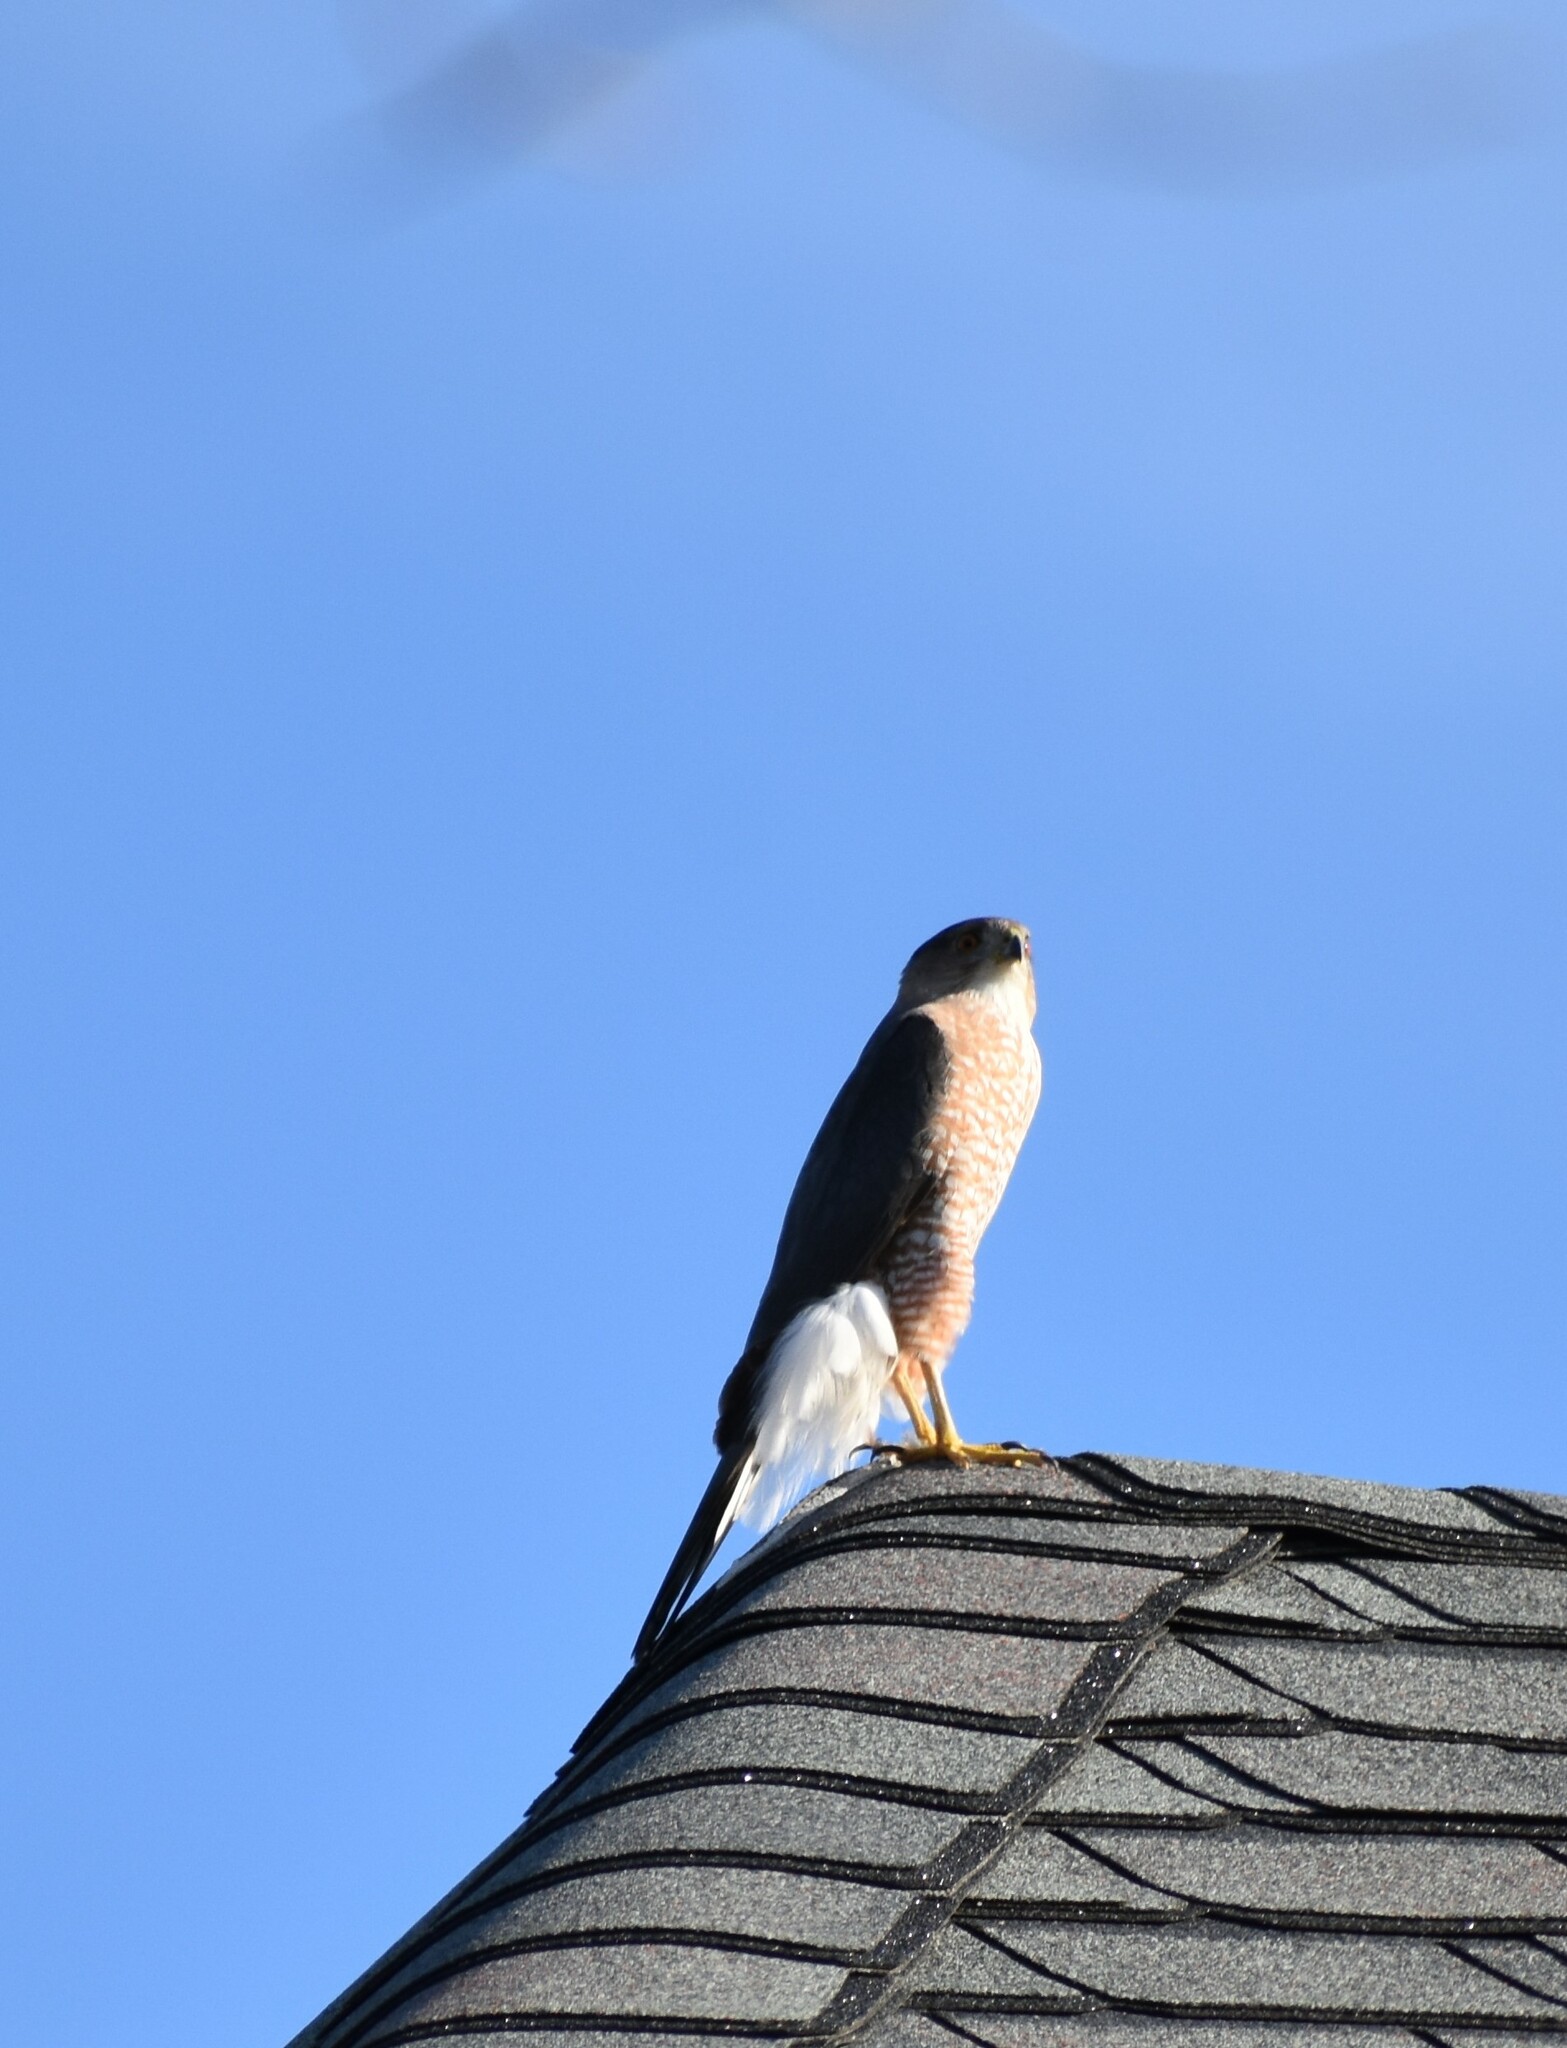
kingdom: Animalia
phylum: Chordata
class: Aves
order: Accipitriformes
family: Accipitridae
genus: Accipiter
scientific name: Accipiter cooperii
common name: Cooper's hawk
